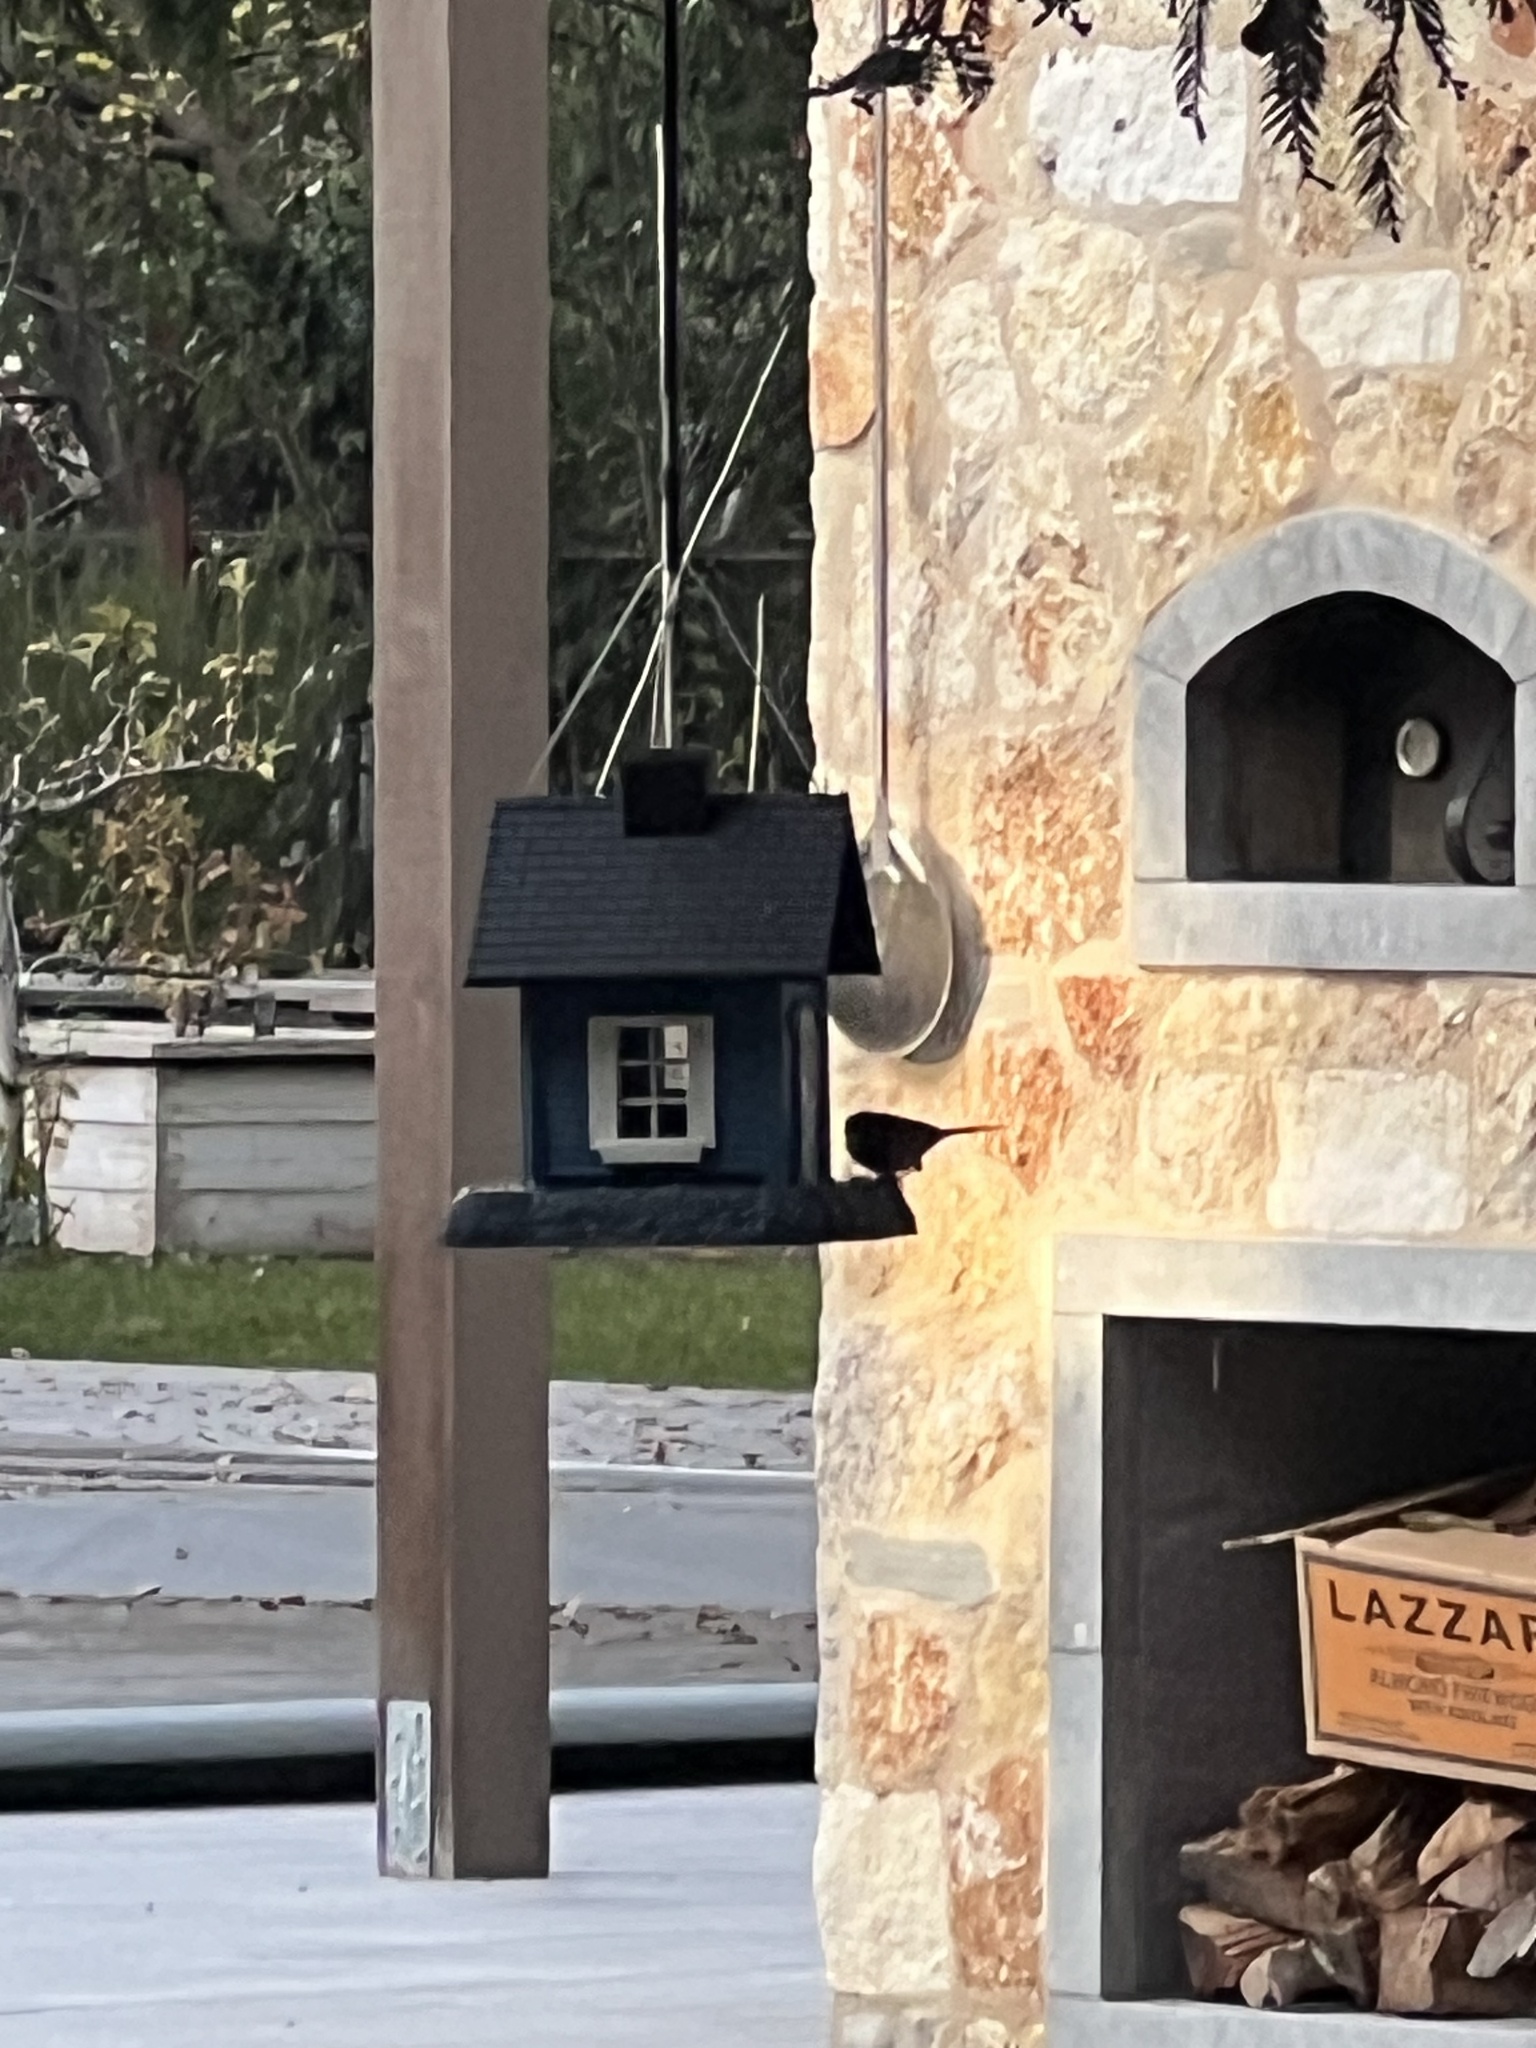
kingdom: Animalia
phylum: Chordata
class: Aves
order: Passeriformes
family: Passerellidae
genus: Junco
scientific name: Junco hyemalis
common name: Dark-eyed junco
